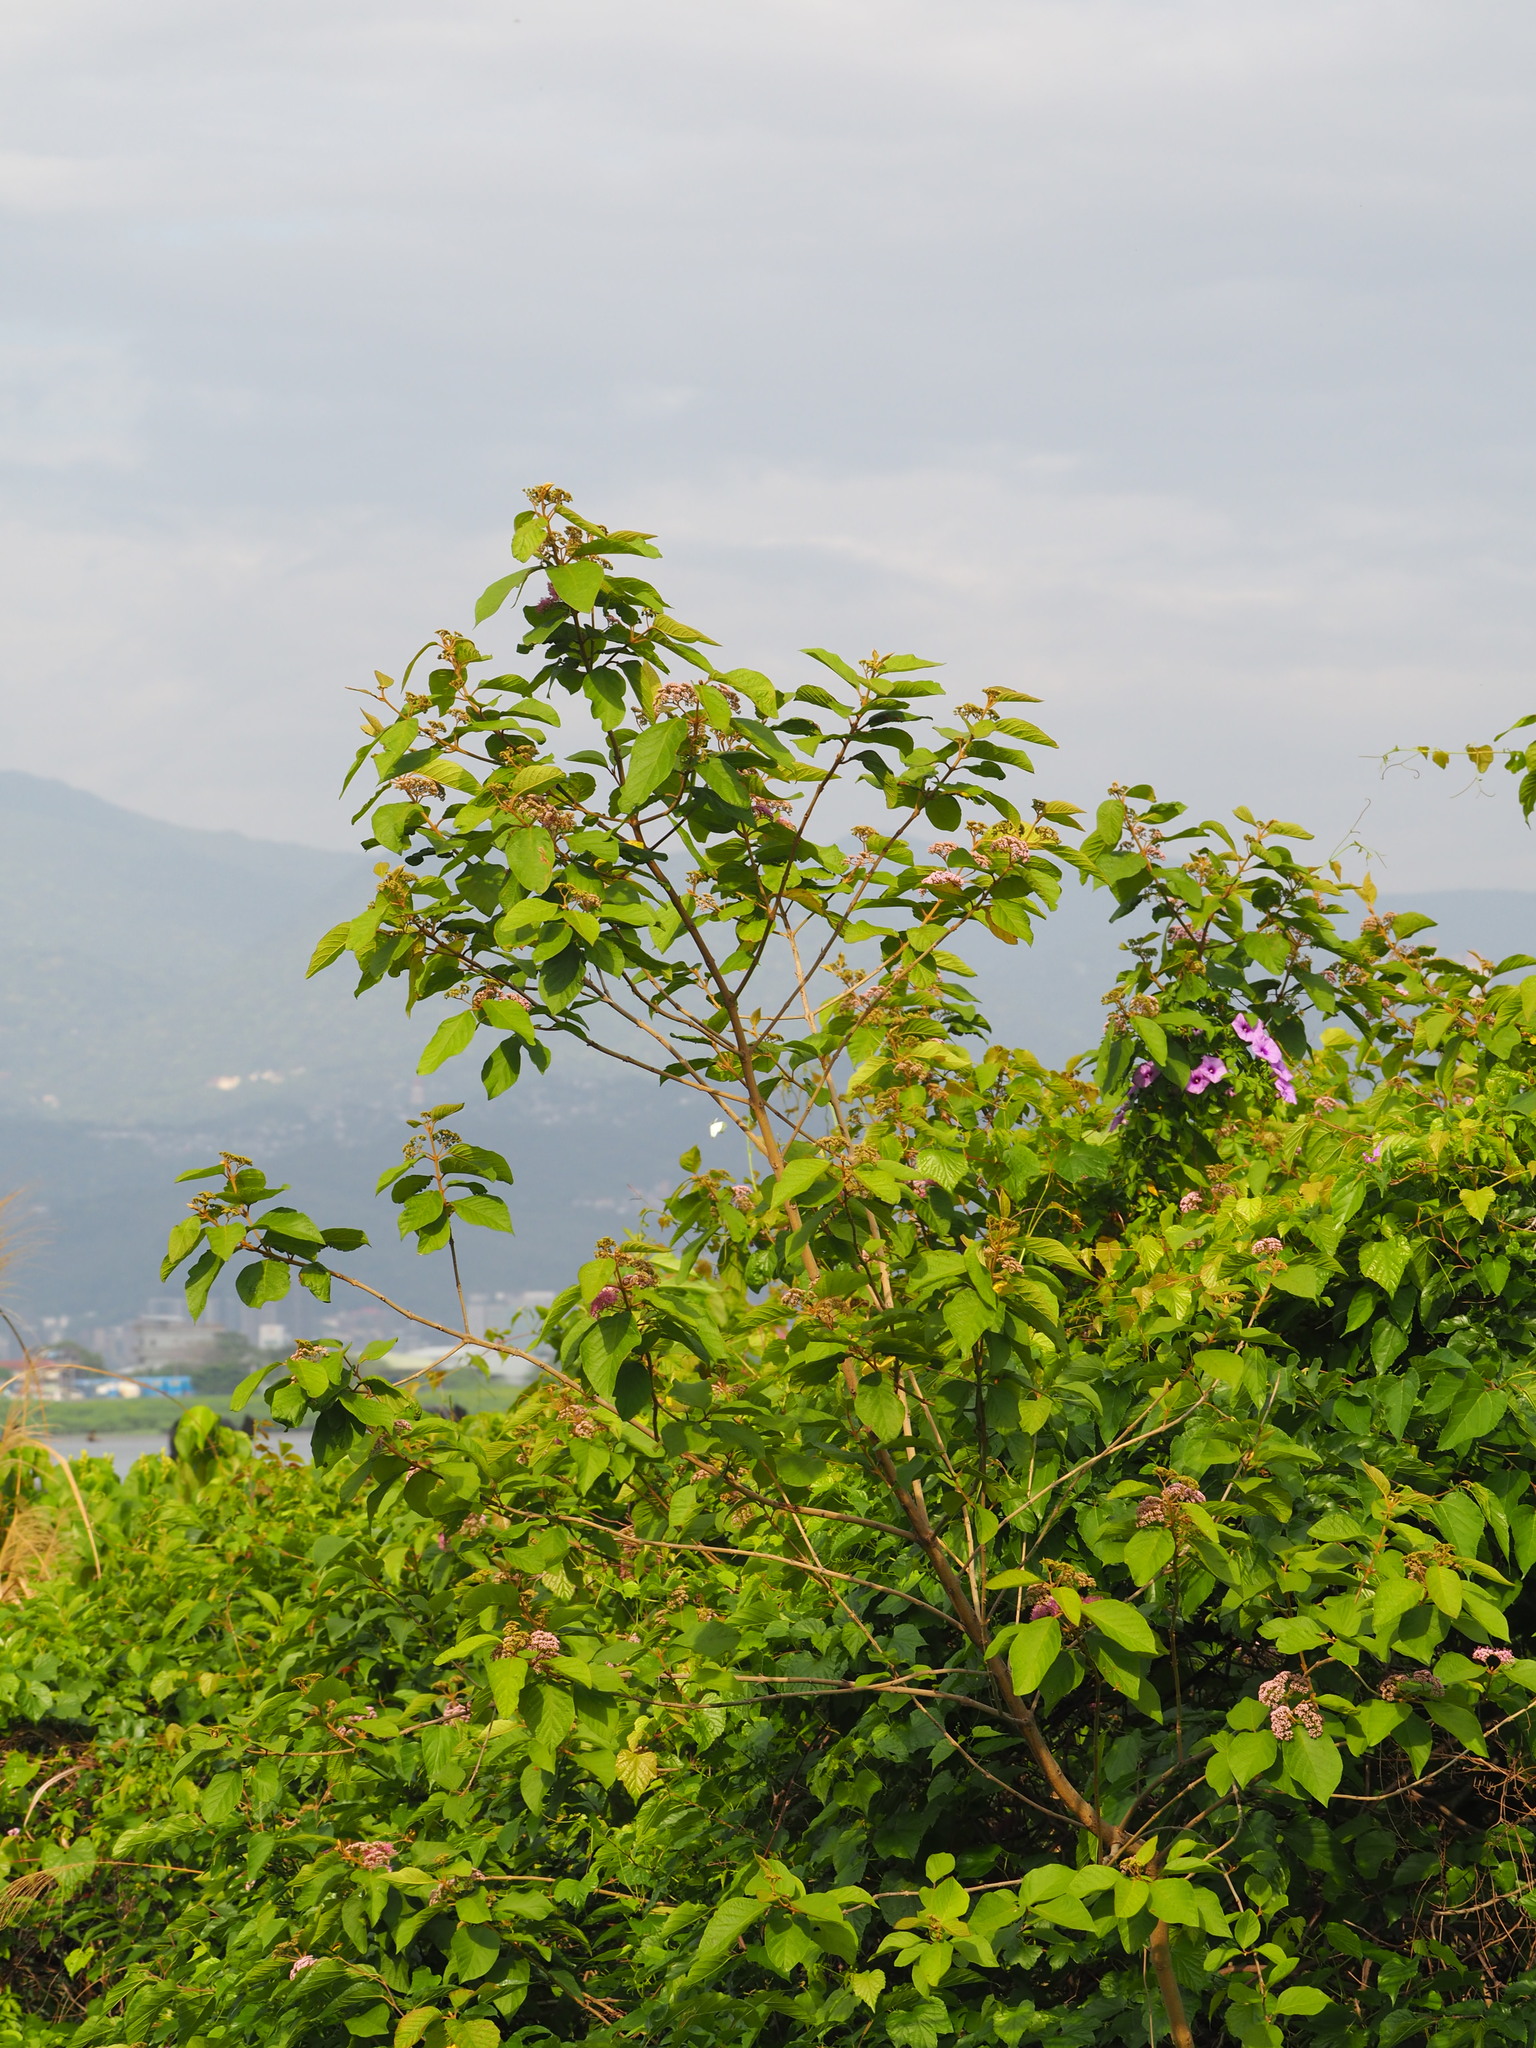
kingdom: Plantae
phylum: Tracheophyta
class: Magnoliopsida
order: Lamiales
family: Lamiaceae
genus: Callicarpa
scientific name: Callicarpa pedunculata
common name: Velvetleaf
